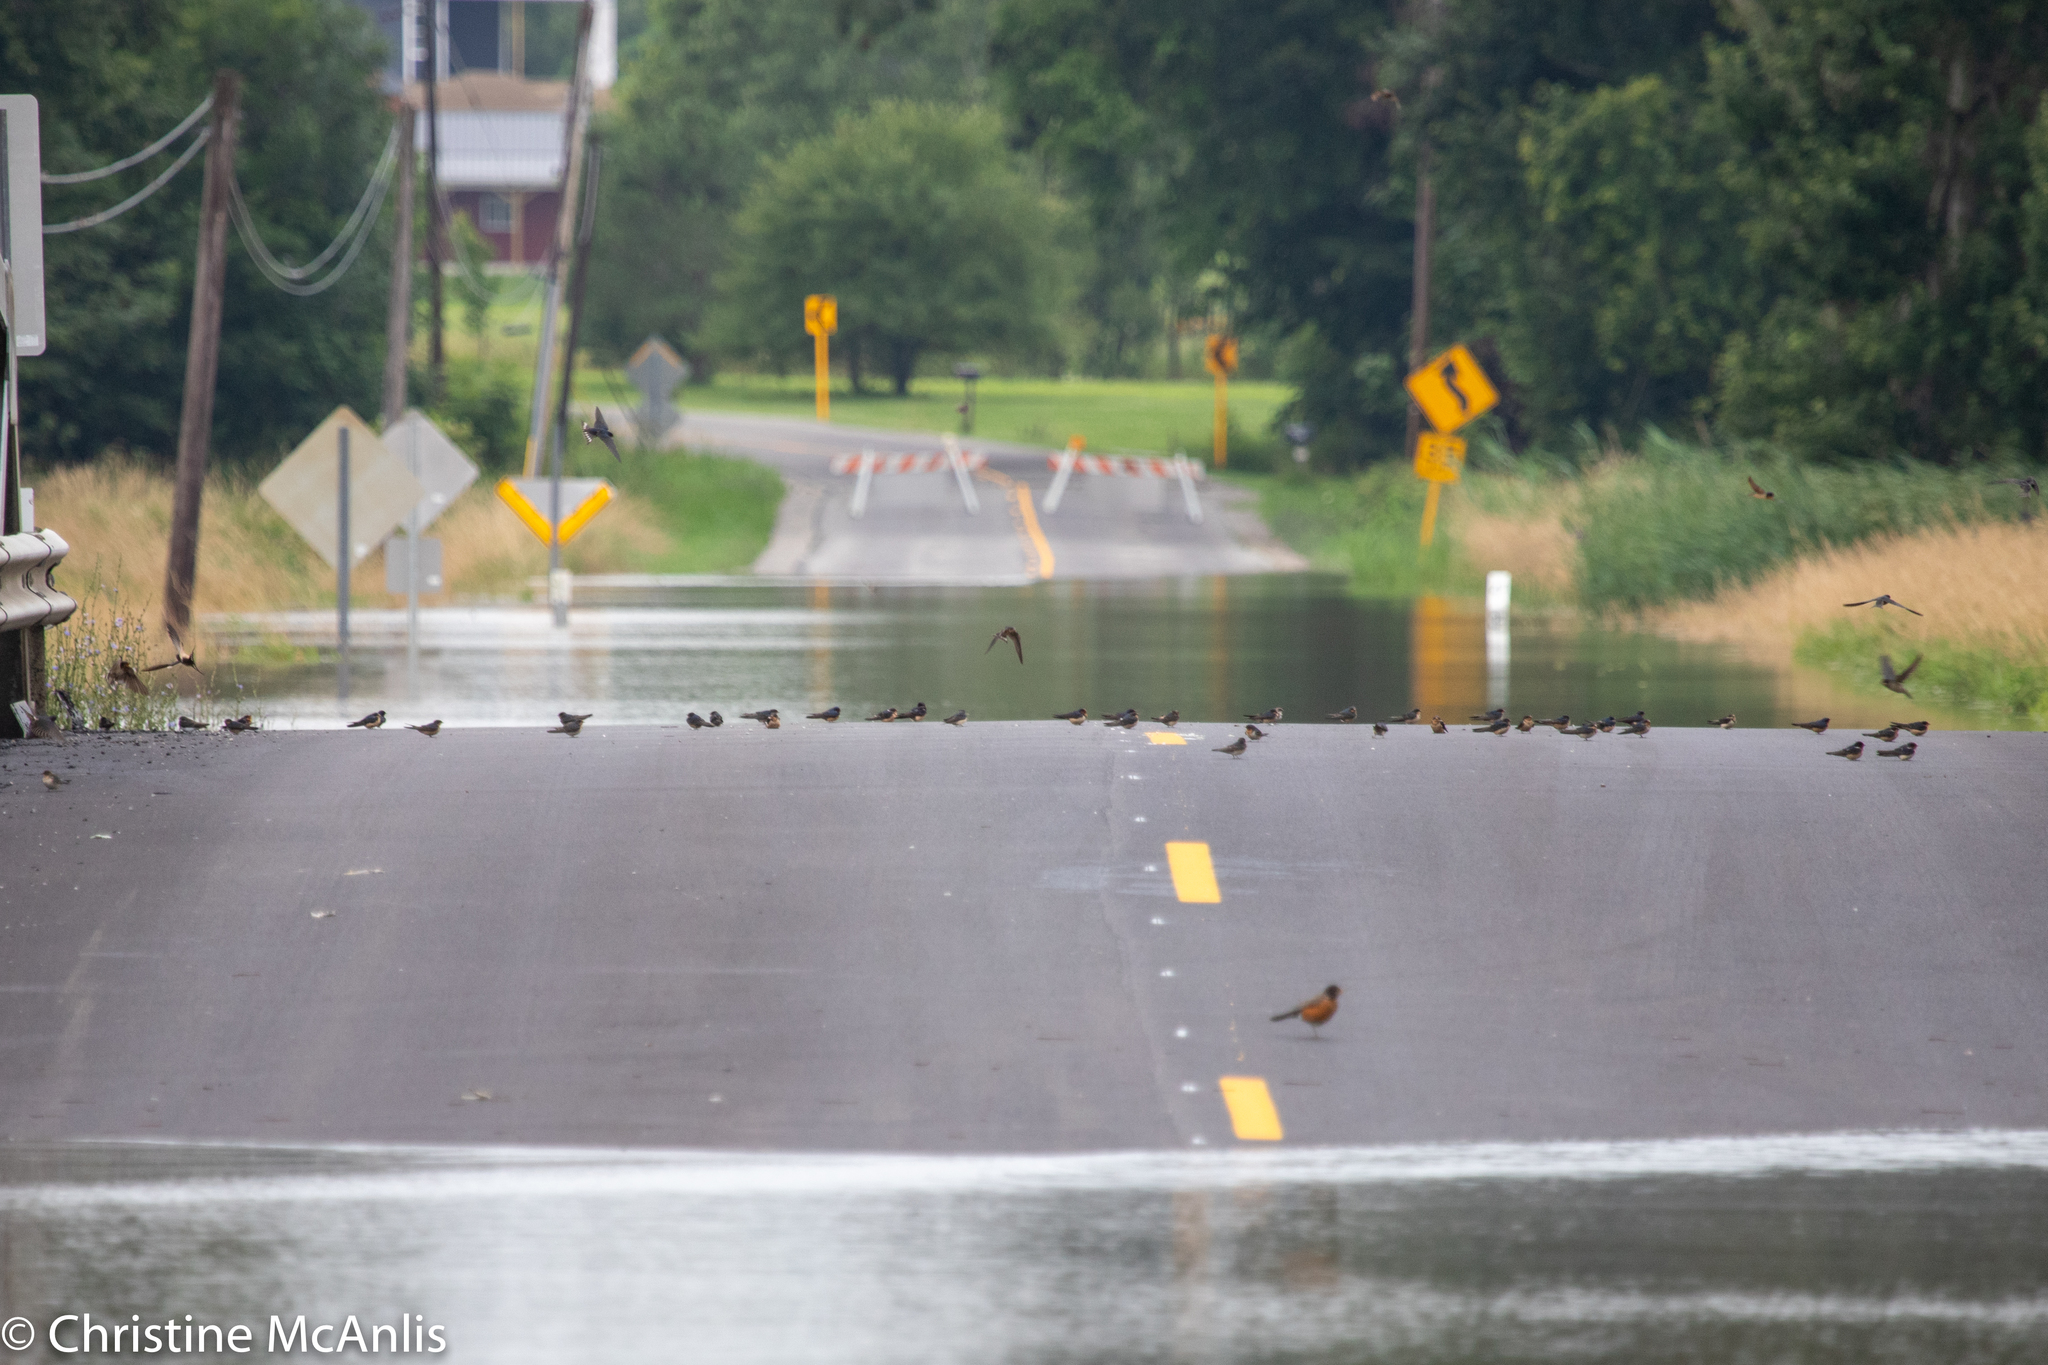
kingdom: Animalia
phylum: Chordata
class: Aves
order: Passeriformes
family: Hirundinidae
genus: Hirundo
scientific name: Hirundo rustica
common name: Barn swallow
